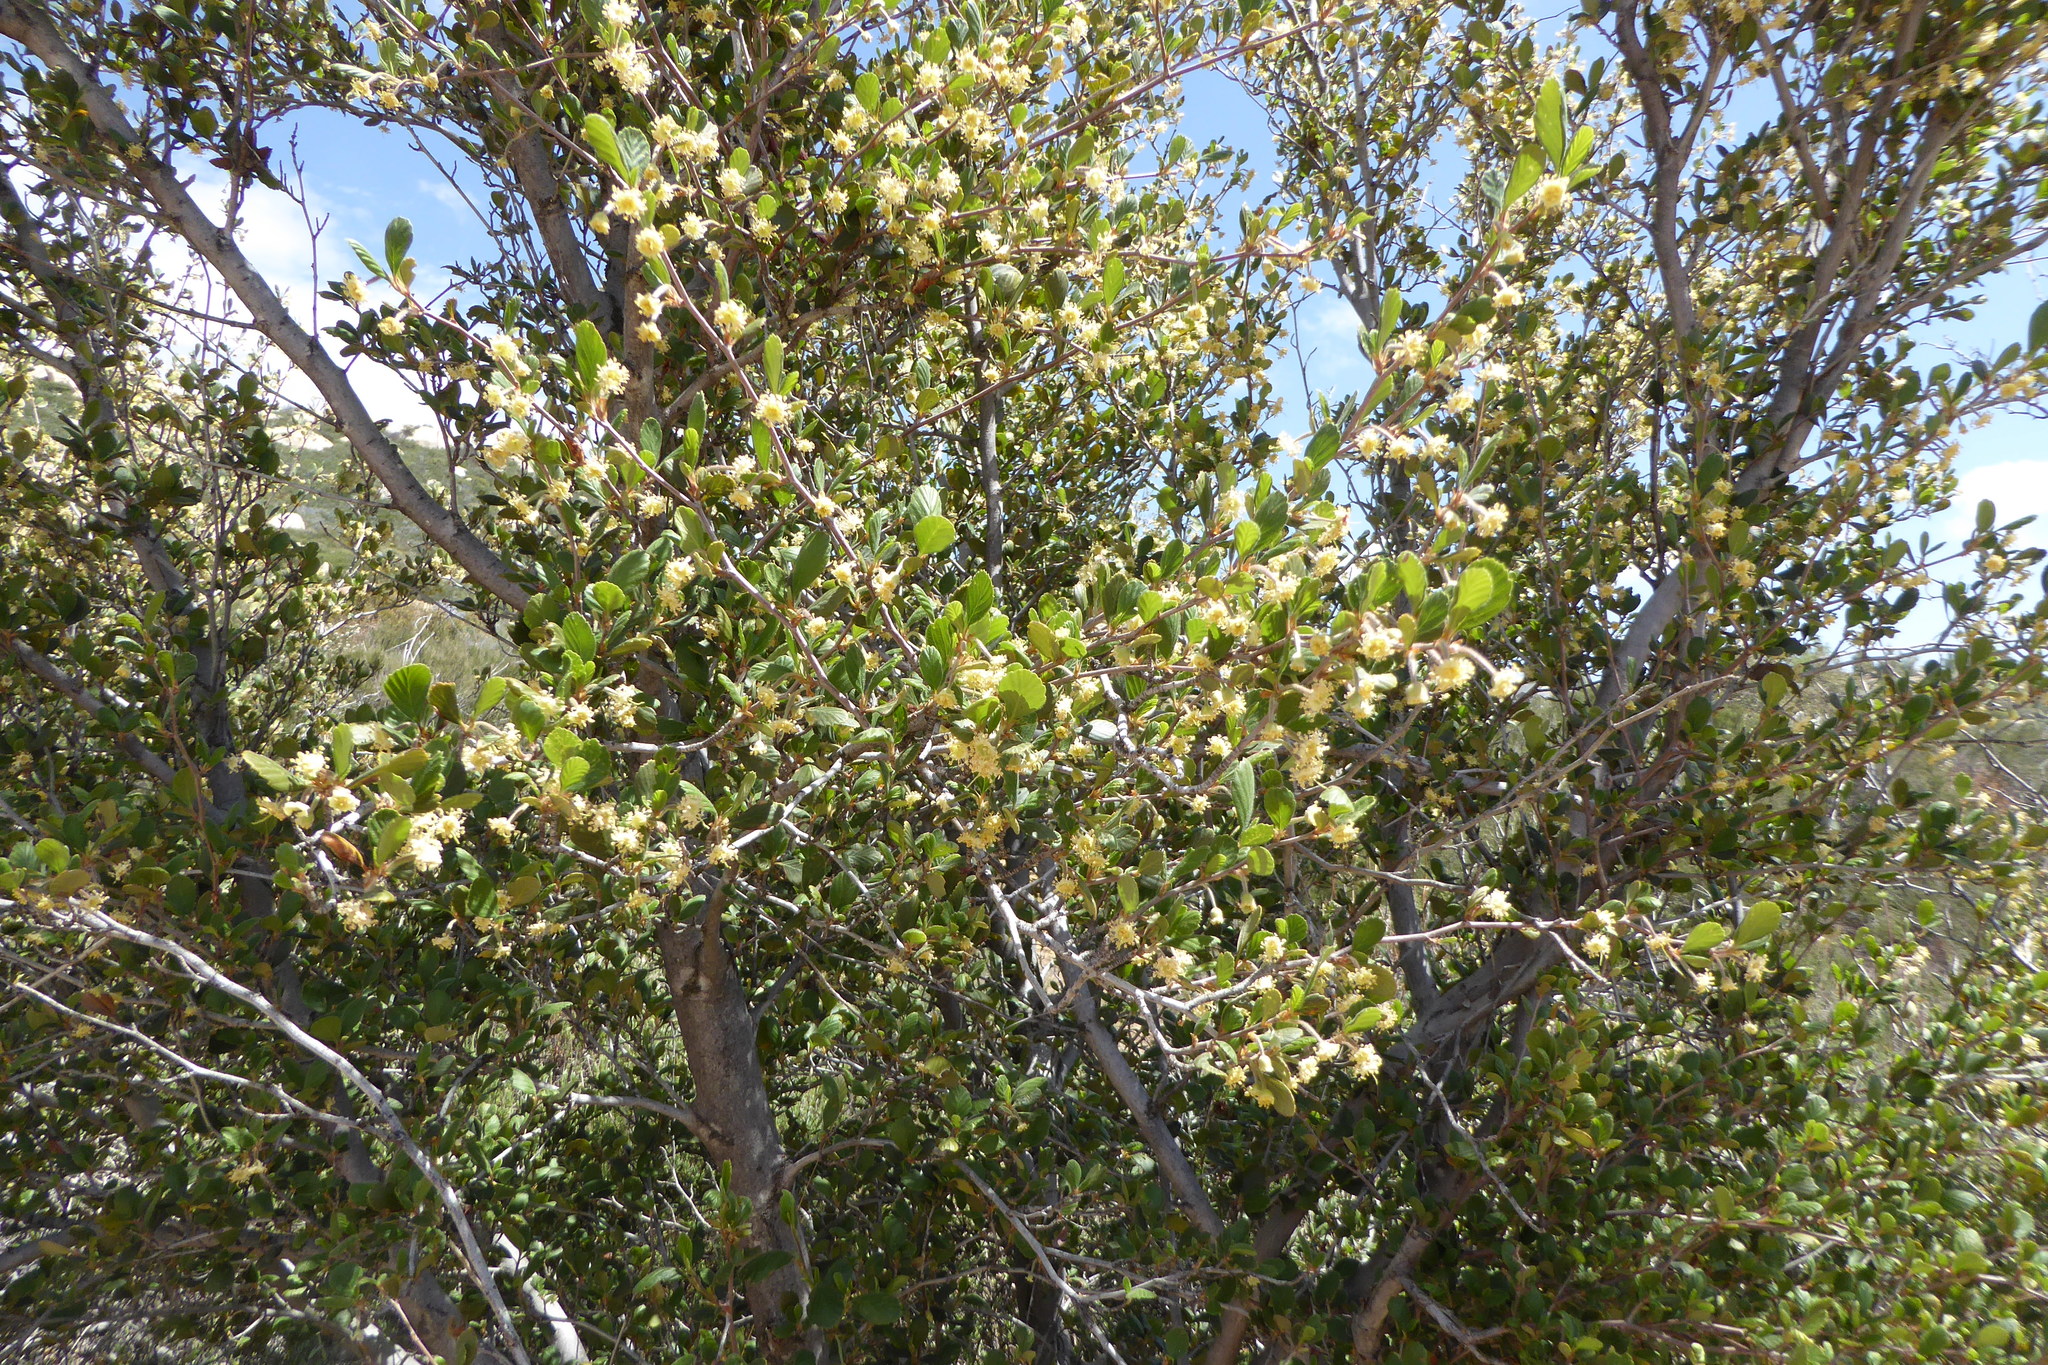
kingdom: Plantae
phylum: Tracheophyta
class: Magnoliopsida
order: Rosales
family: Rosaceae
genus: Cercocarpus
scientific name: Cercocarpus betuloides
